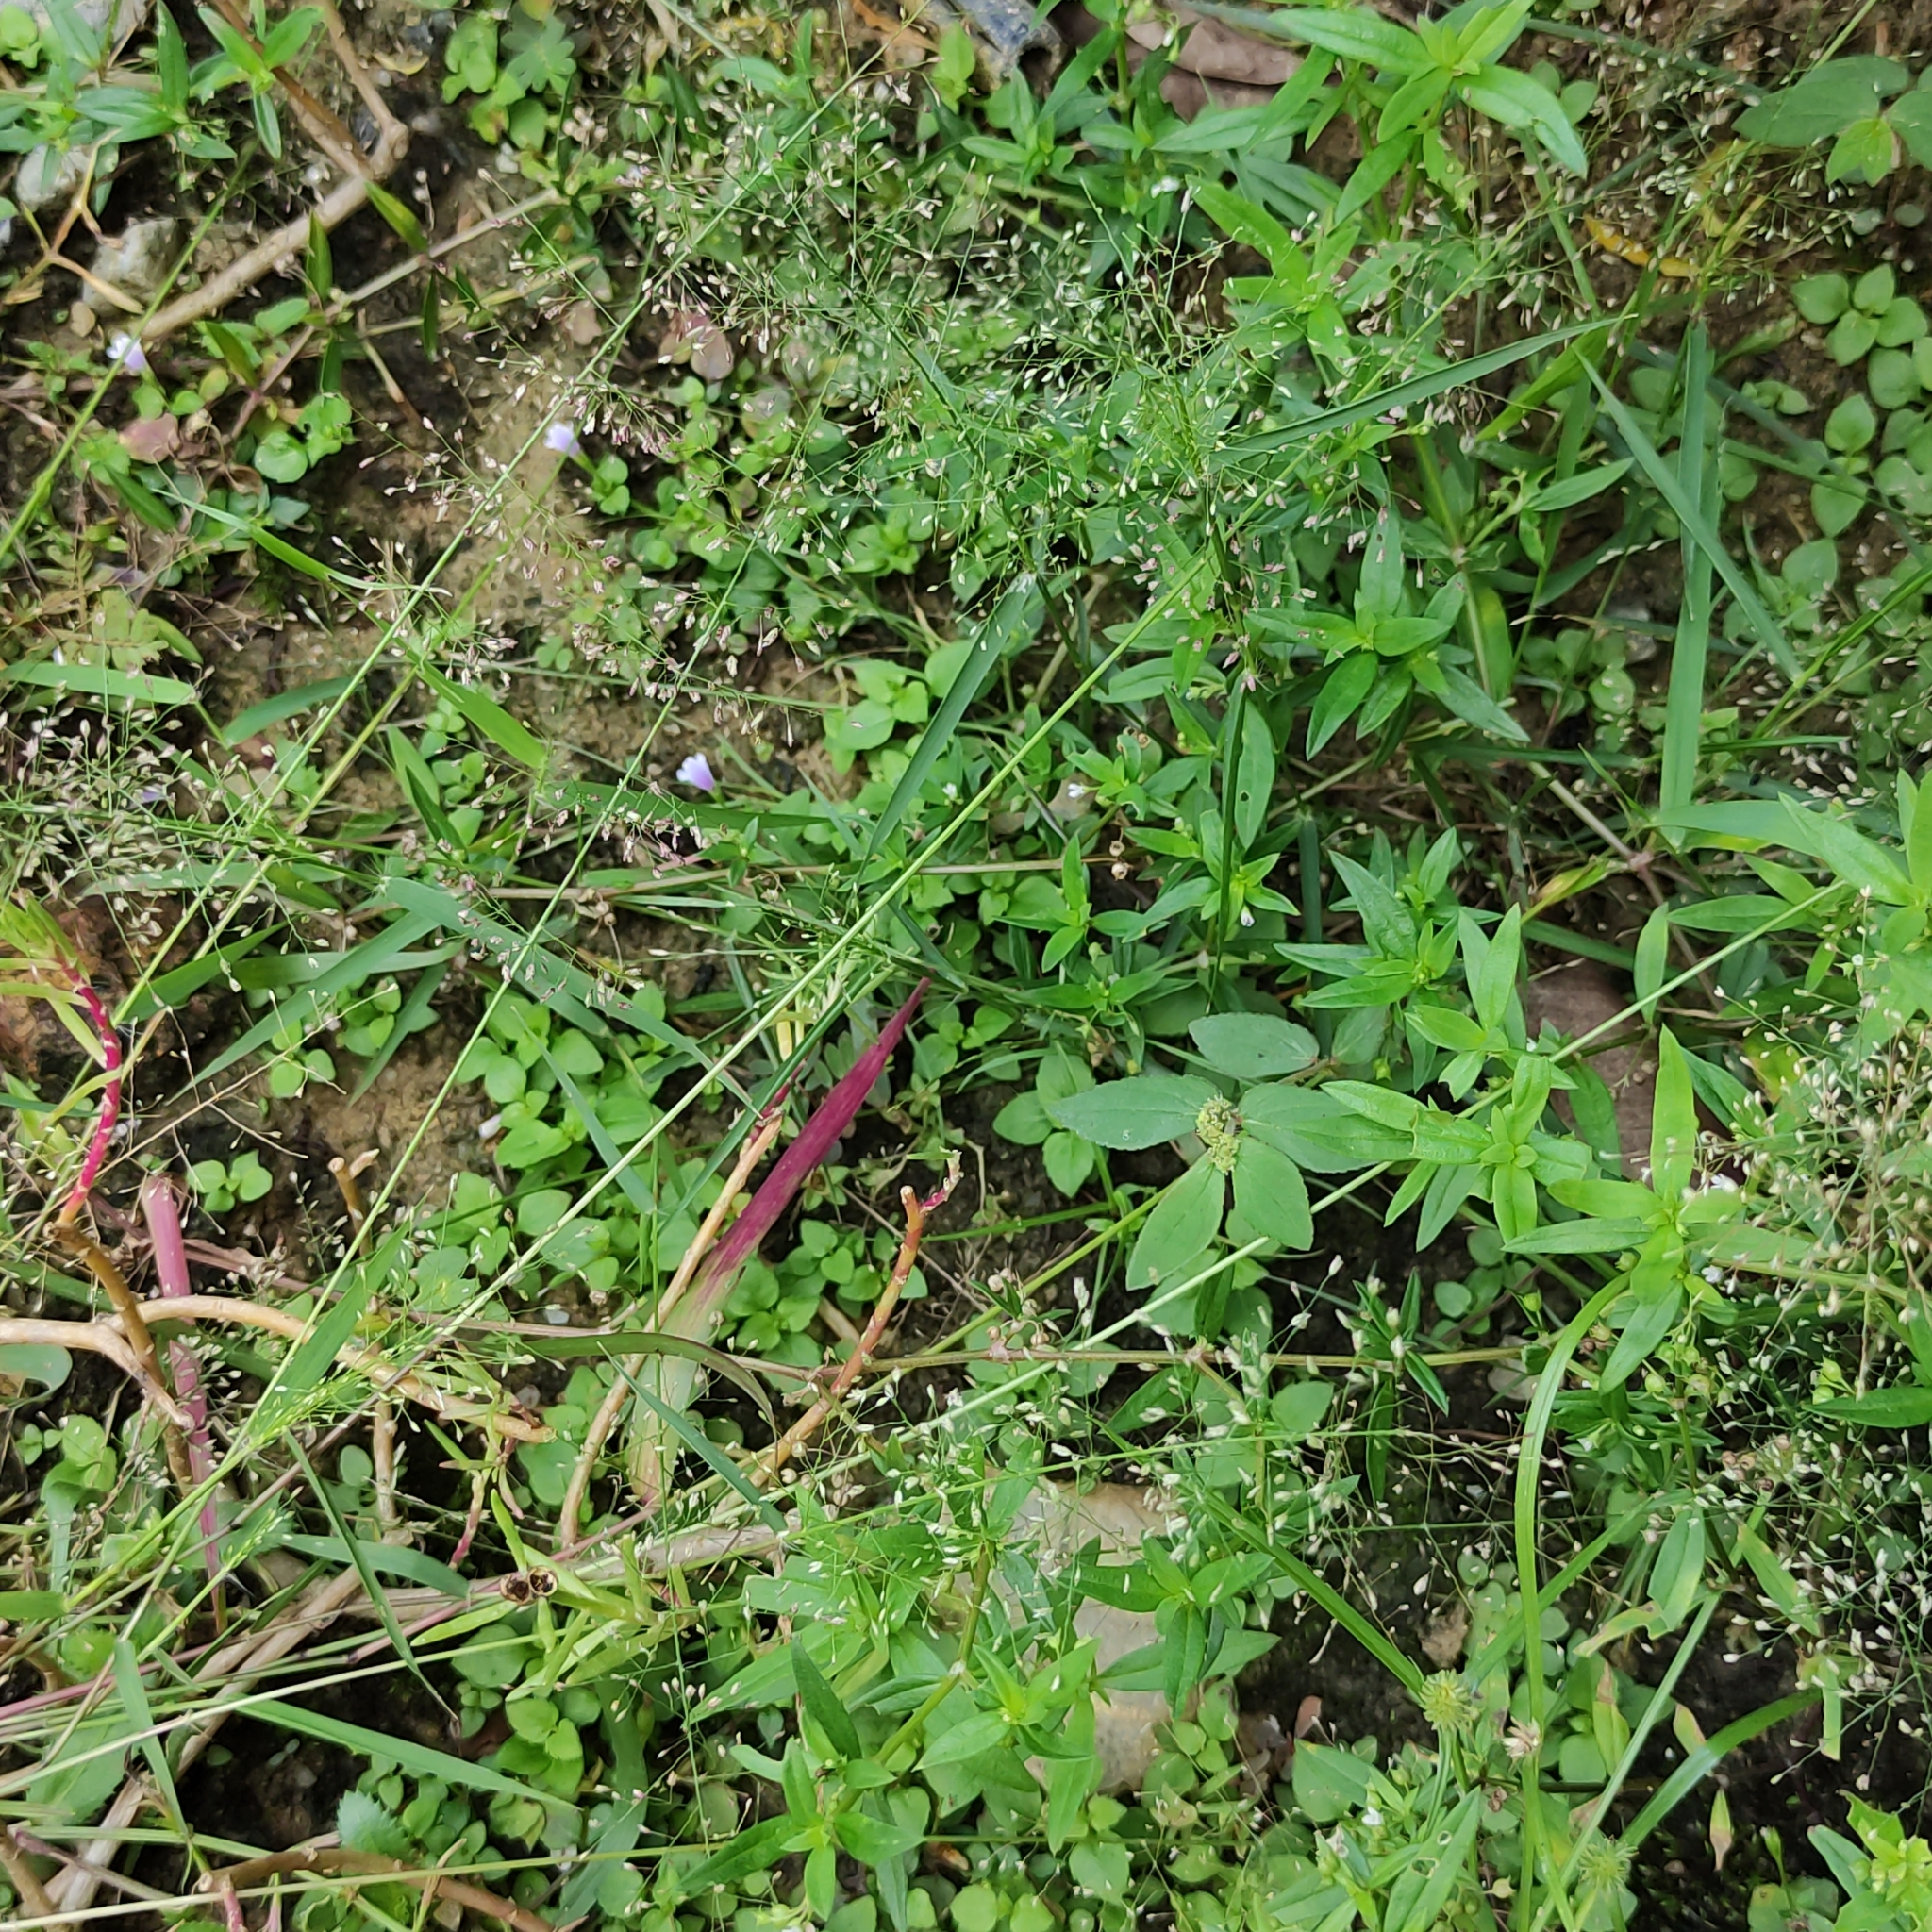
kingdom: Plantae
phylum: Tracheophyta
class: Liliopsida
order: Poales
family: Poaceae
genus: Eragrostis
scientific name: Eragrostis tenella
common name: Japanese lovegrass
